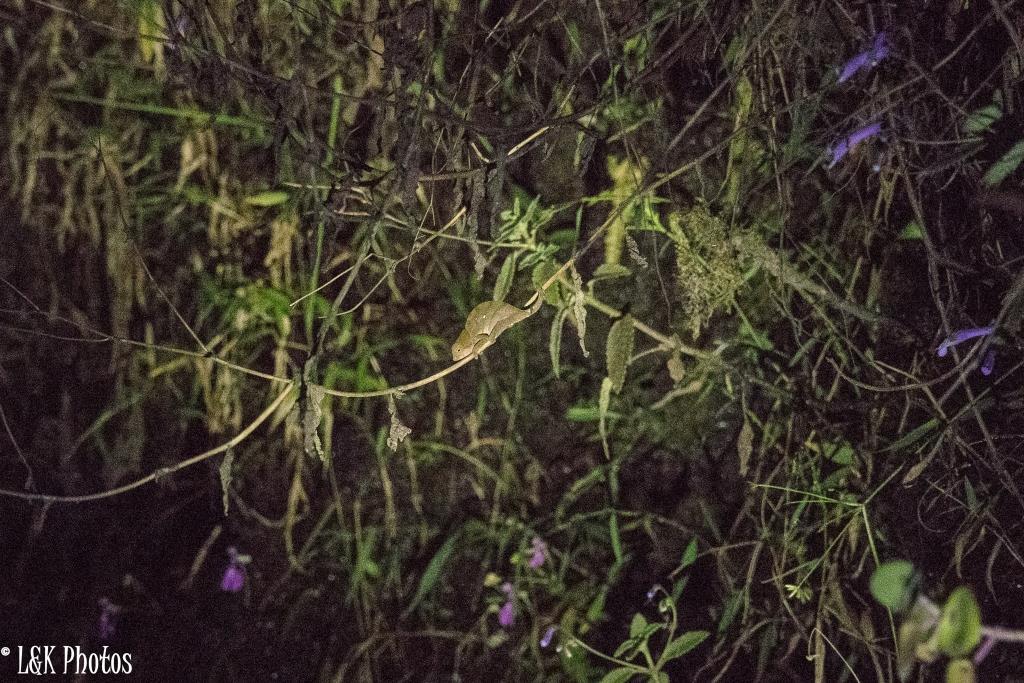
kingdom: Animalia
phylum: Chordata
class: Squamata
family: Chamaeleonidae
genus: Calumma
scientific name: Calumma oshaughnessyi
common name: O'shaughnessy's chameleon
